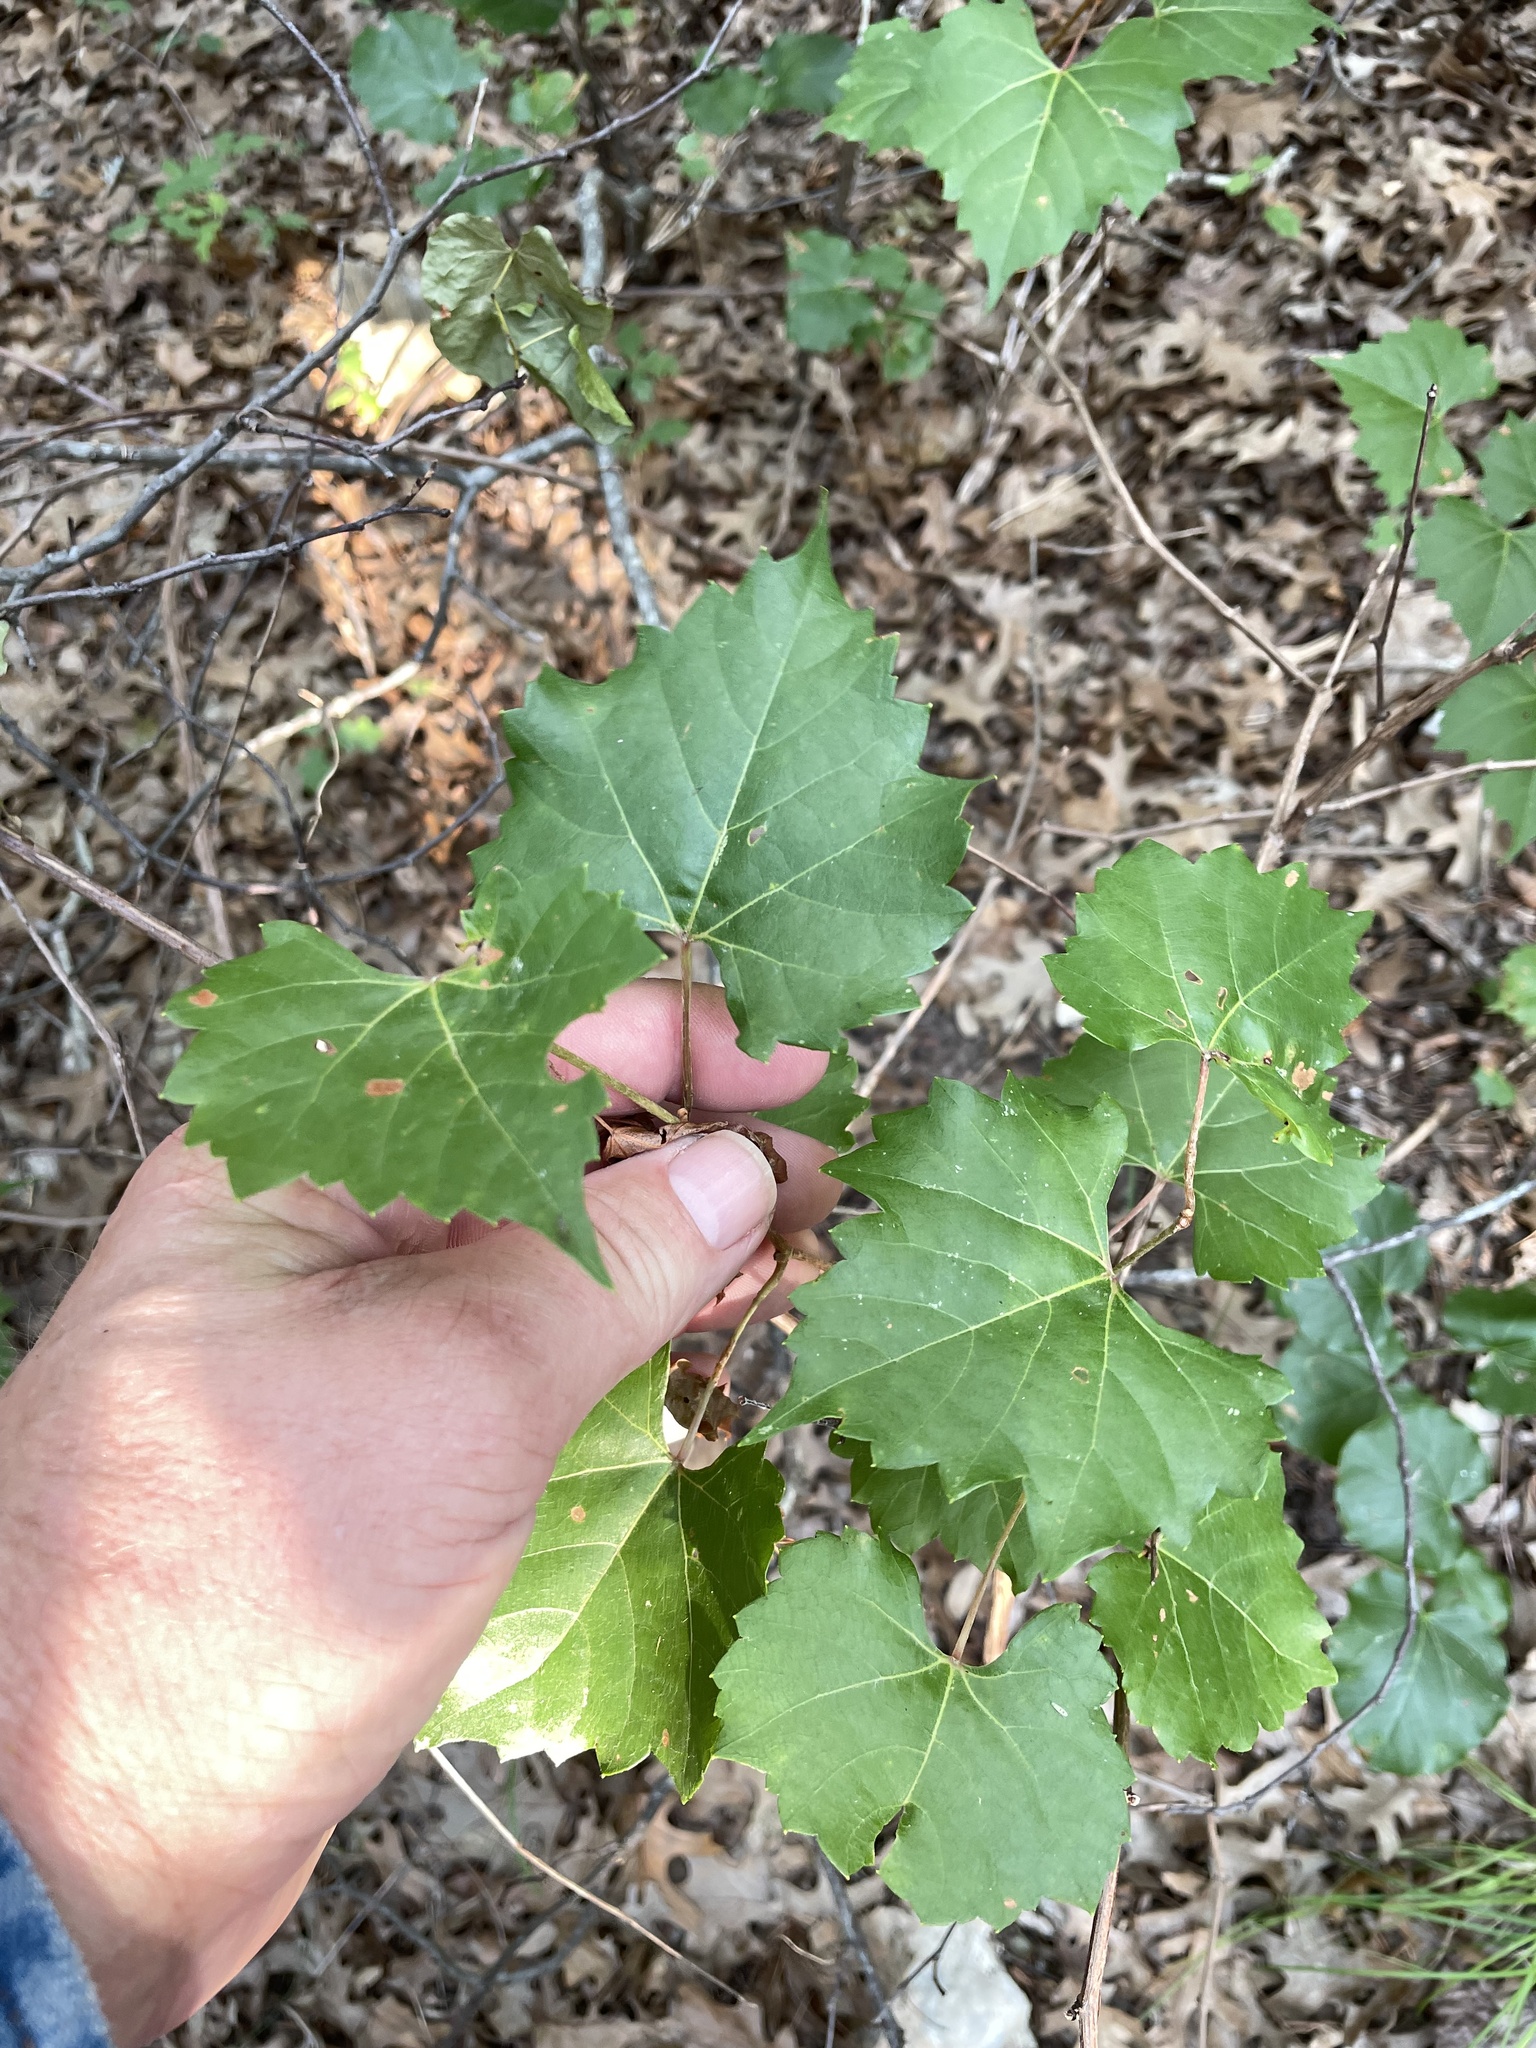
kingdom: Plantae
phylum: Tracheophyta
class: Magnoliopsida
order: Vitales
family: Vitaceae
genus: Vitis
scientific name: Vitis monticola
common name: Mountain grape
